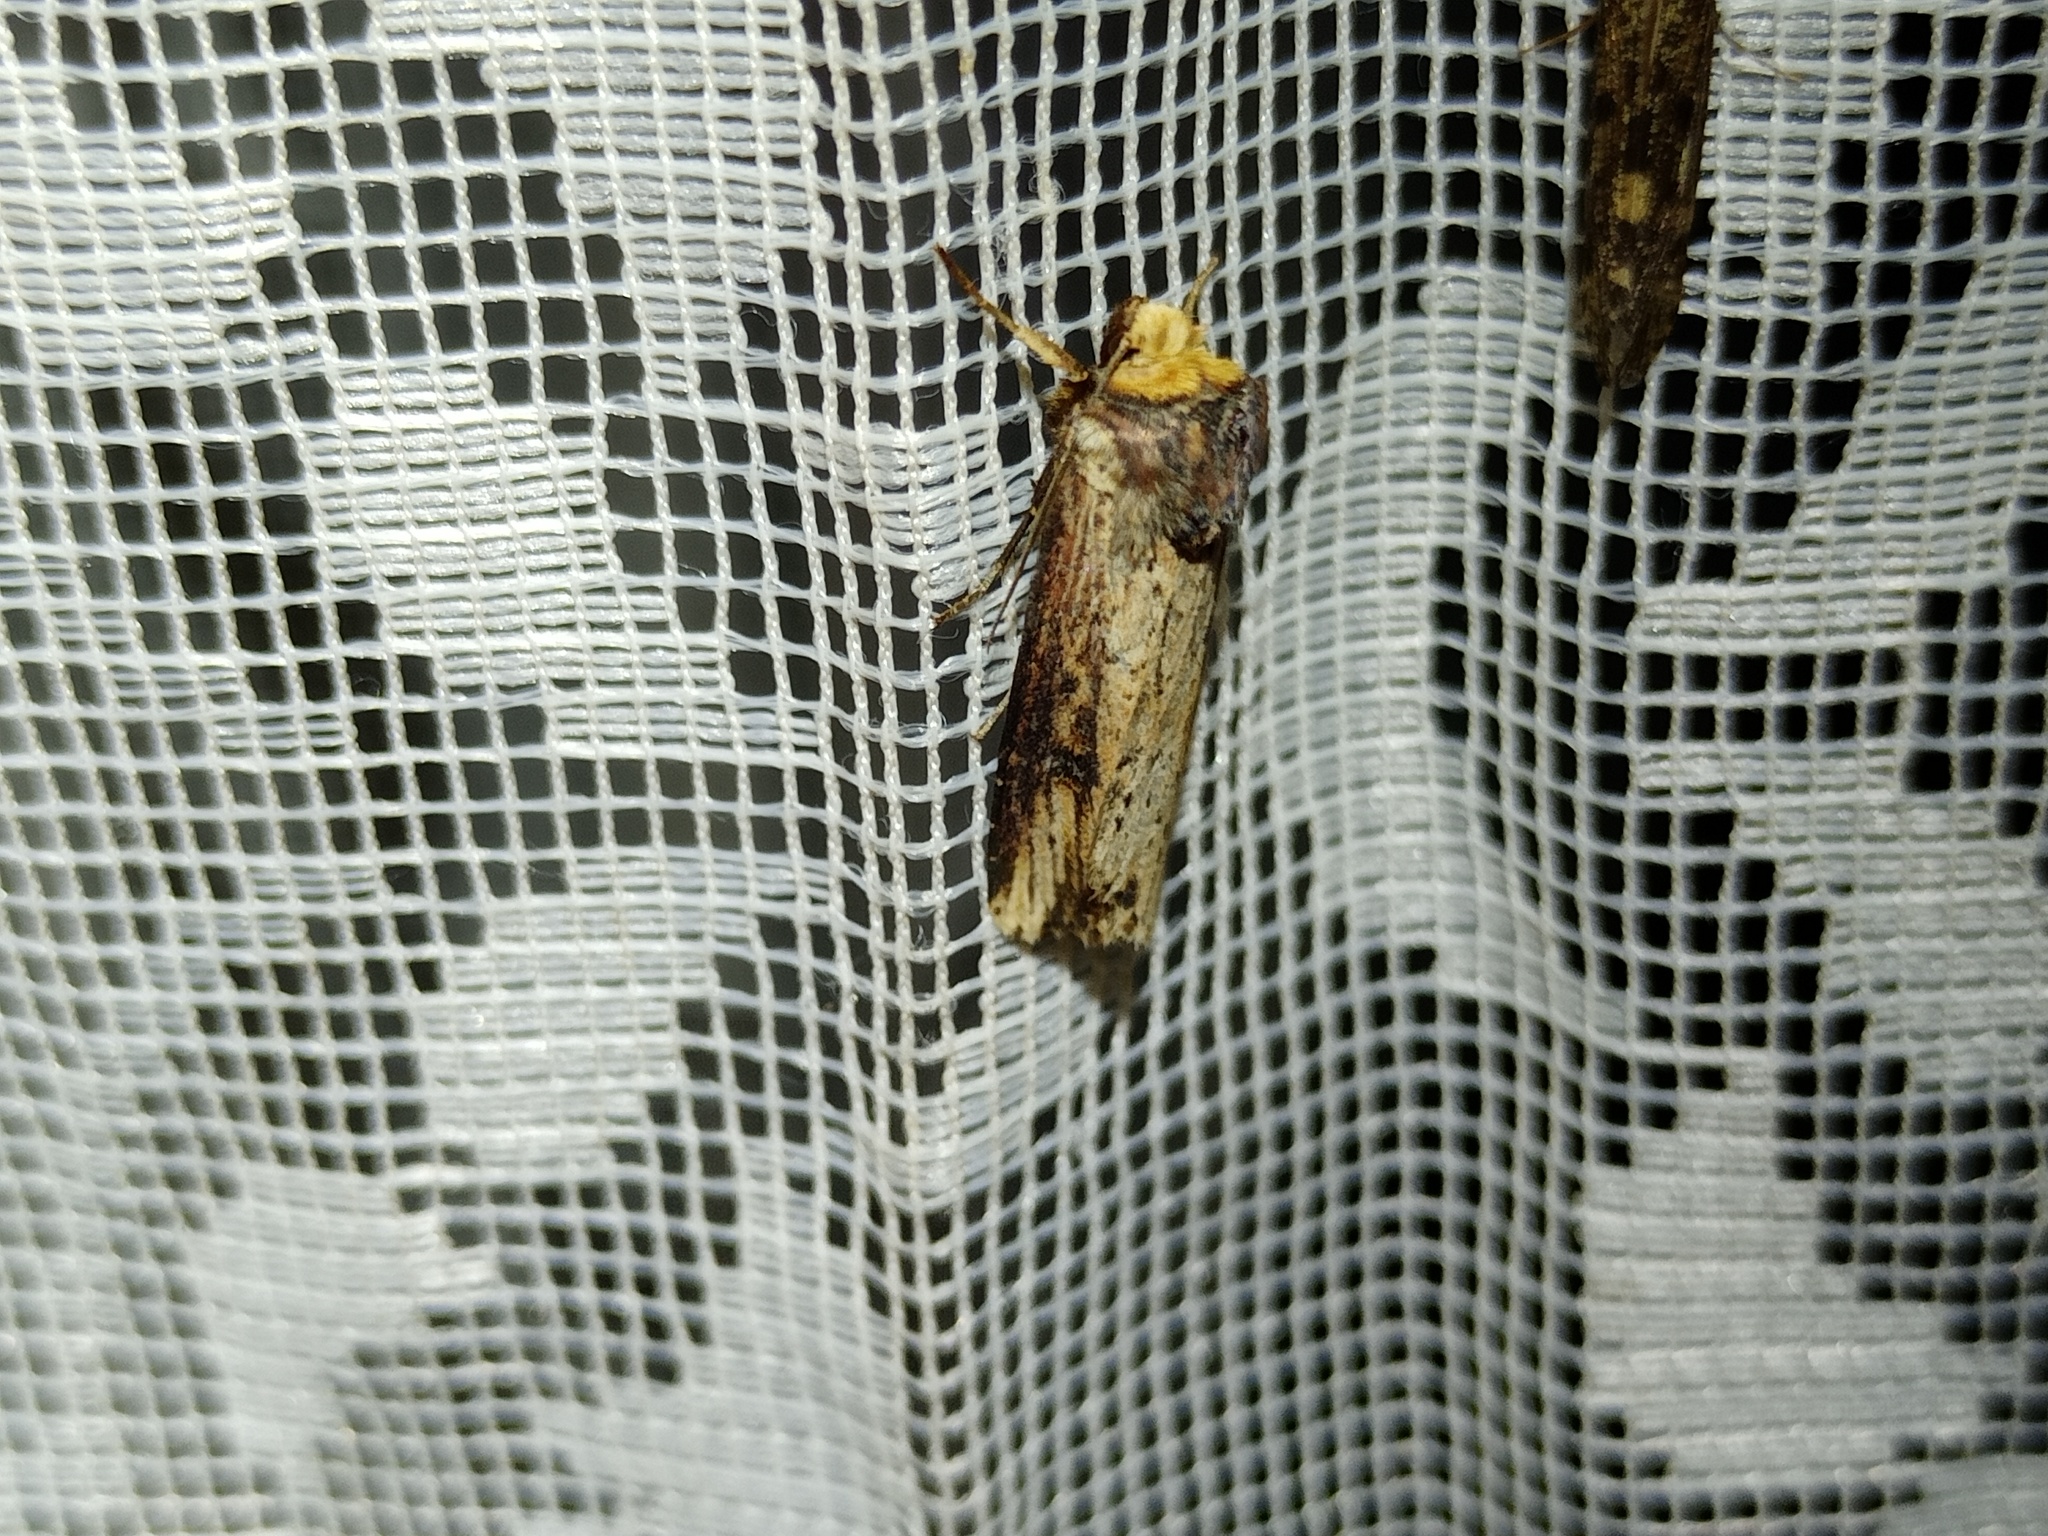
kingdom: Animalia
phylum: Arthropoda
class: Insecta
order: Lepidoptera
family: Noctuidae
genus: Axylia
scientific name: Axylia putris
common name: Flame
